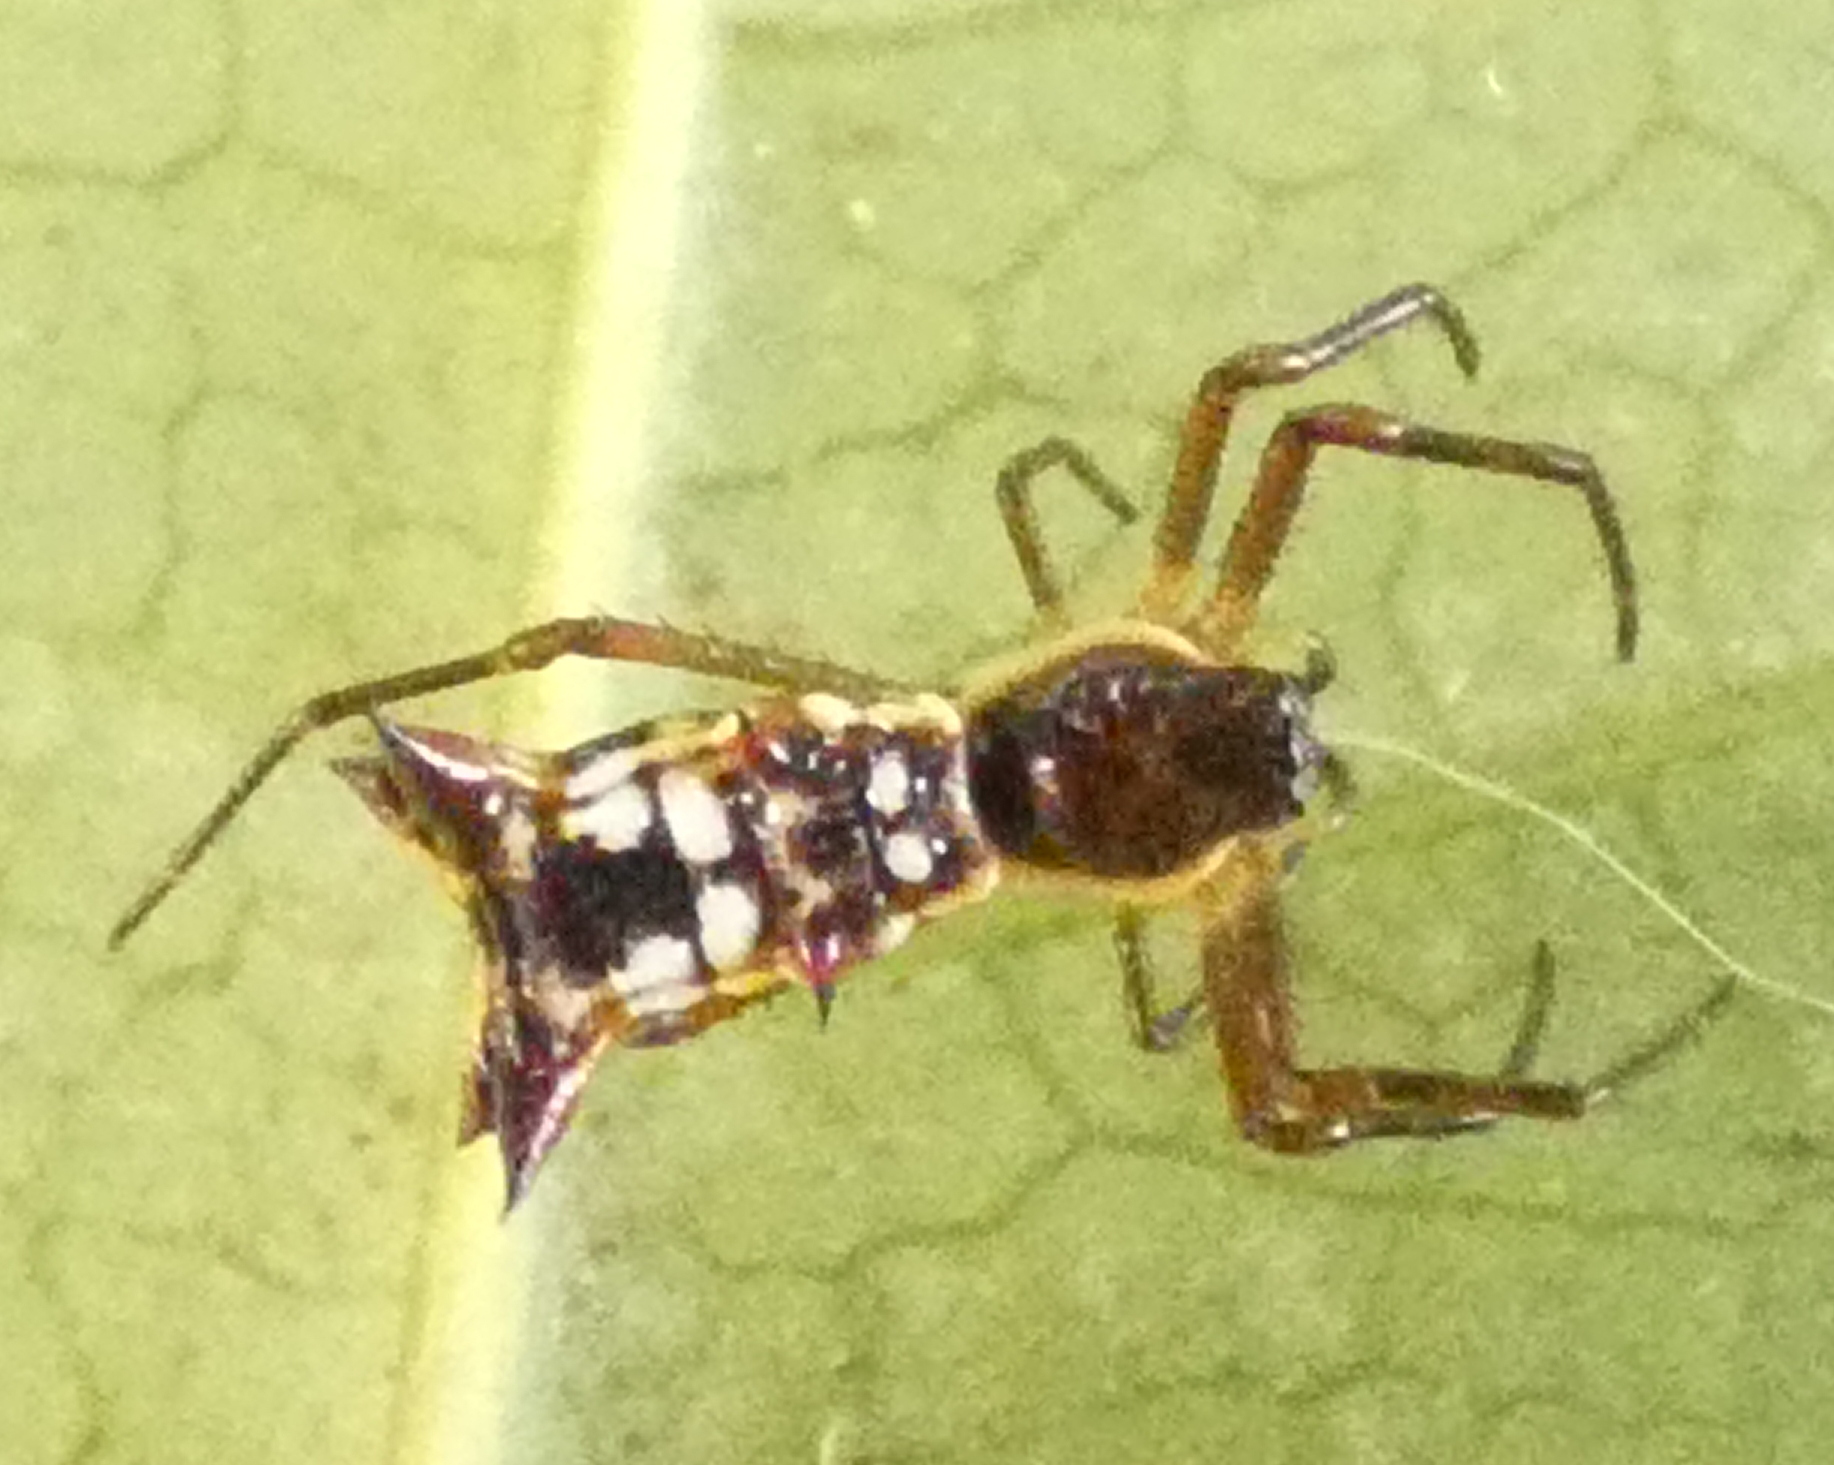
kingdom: Animalia
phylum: Arthropoda
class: Arachnida
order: Araneae
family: Araneidae
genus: Micrathena
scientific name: Micrathena fissispina
